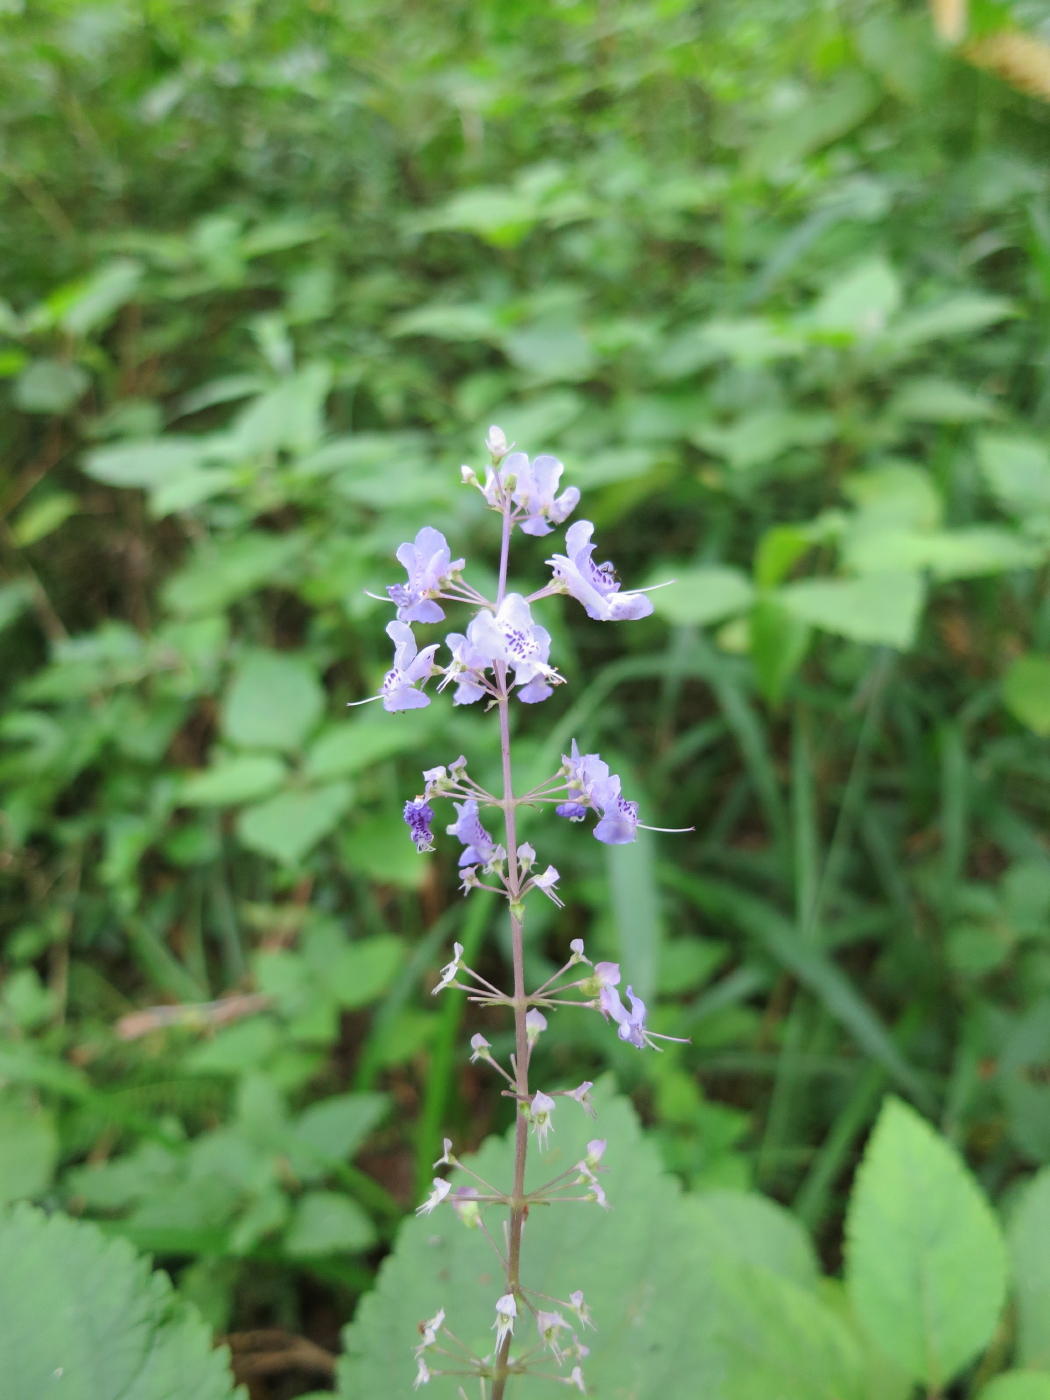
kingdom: Plantae
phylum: Tracheophyta
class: Magnoliopsida
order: Lamiales
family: Lamiaceae
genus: Plectranthus
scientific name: Plectranthus fruticosus
